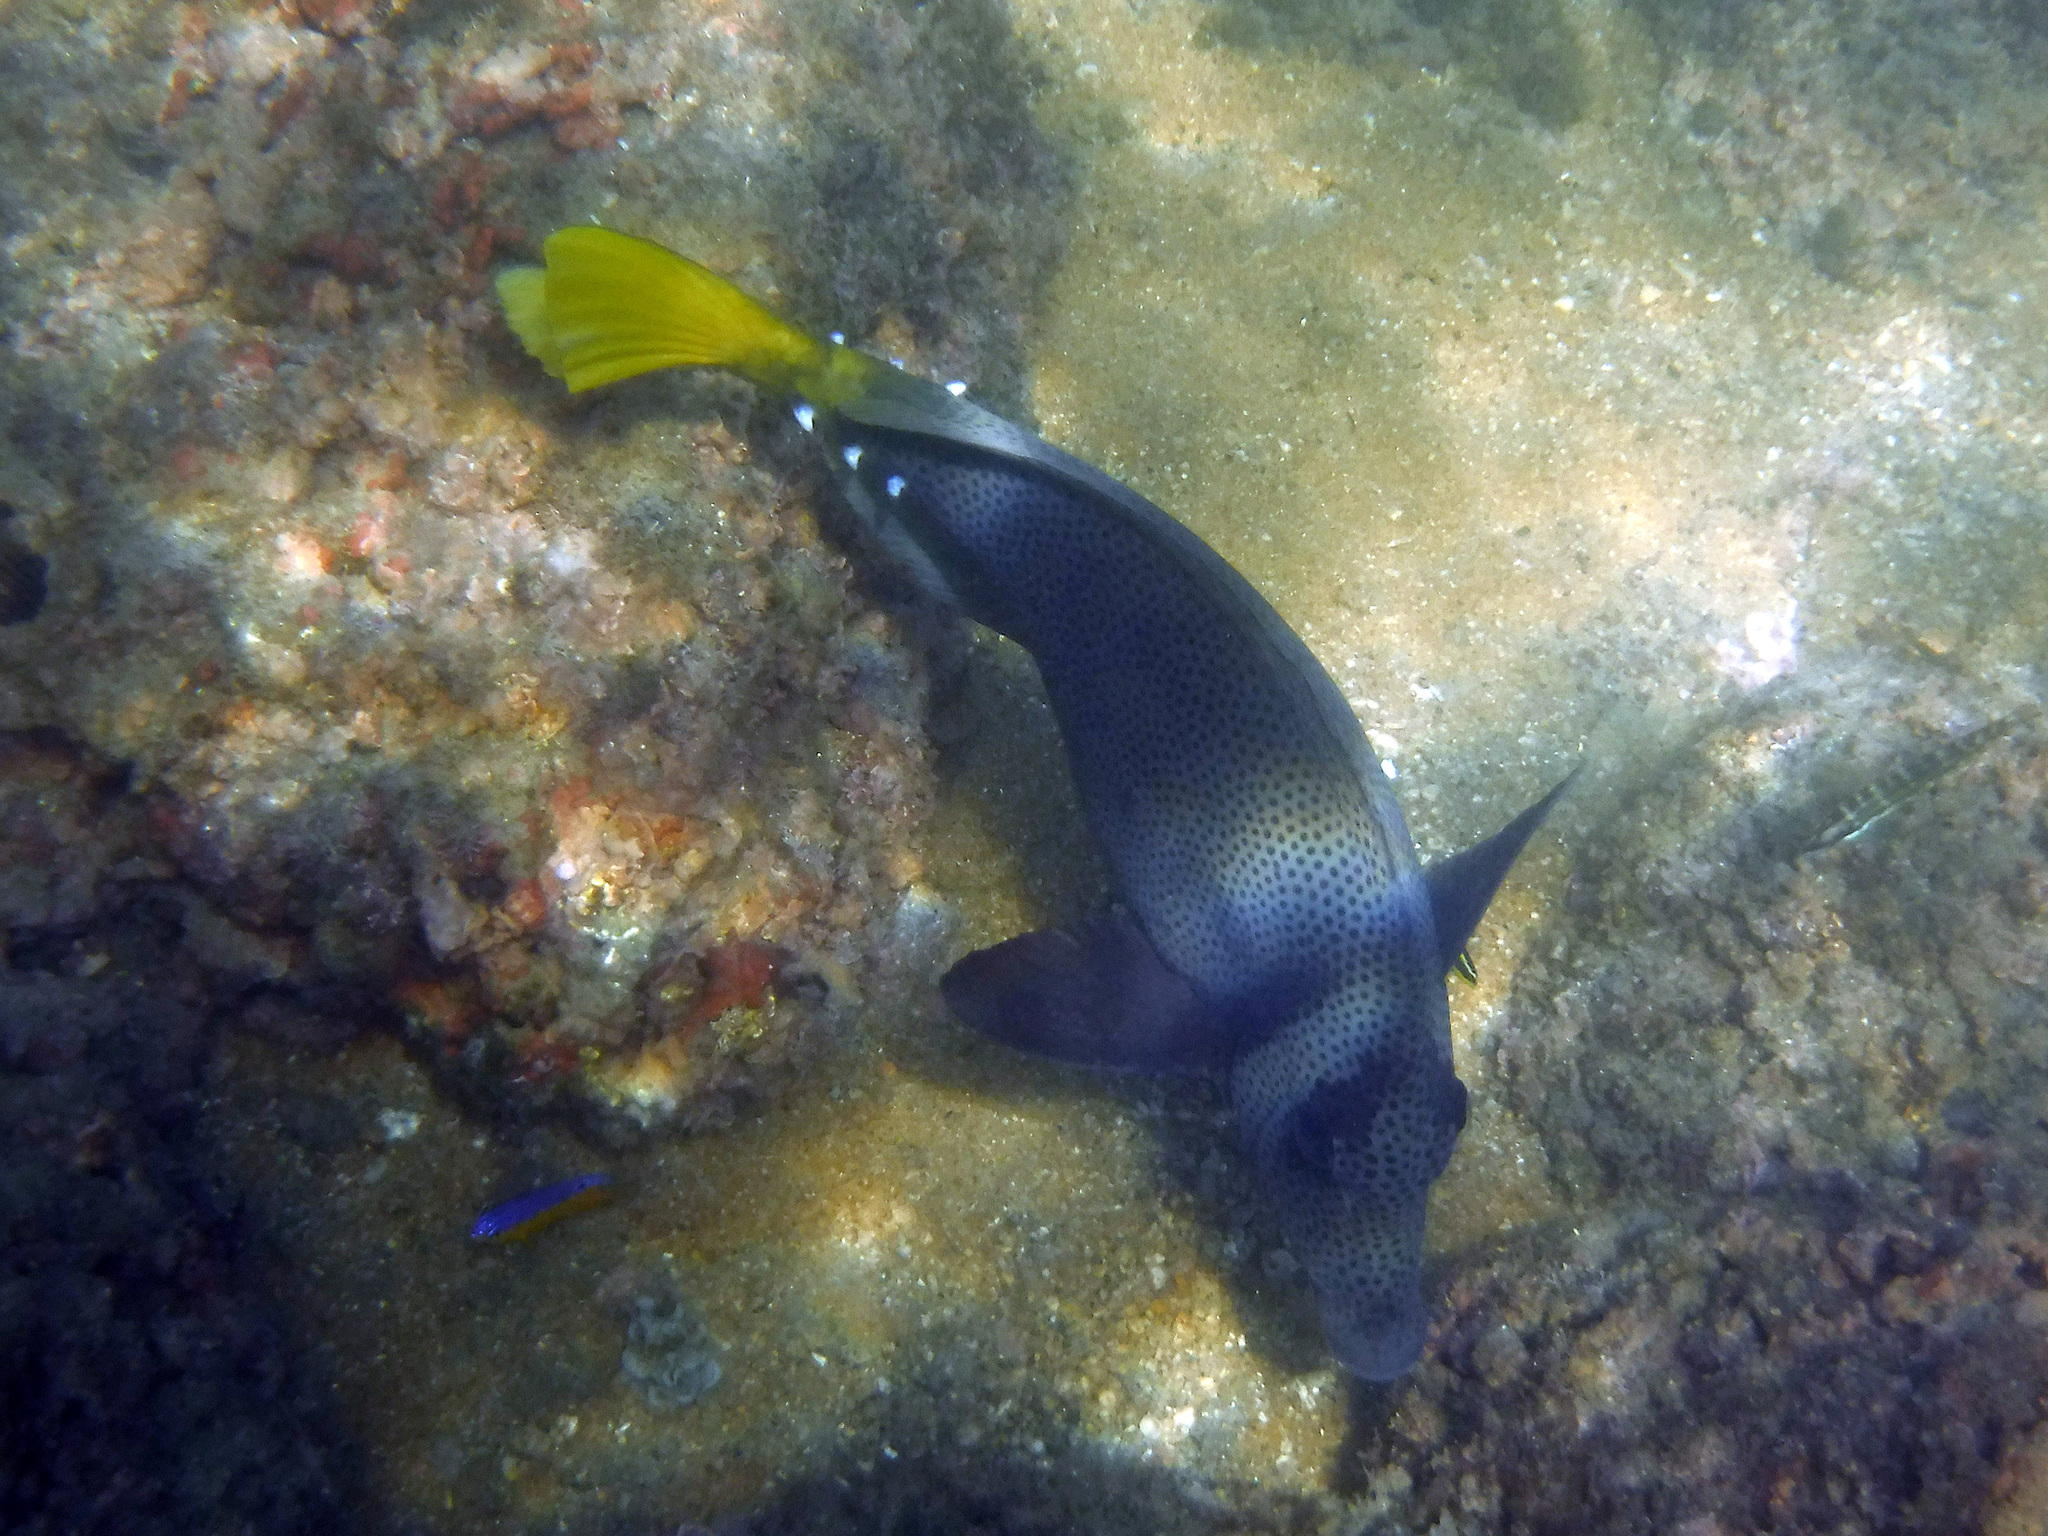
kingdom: Animalia
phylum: Chordata
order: Perciformes
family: Acanthuridae
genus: Prionurus
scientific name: Prionurus laticlavius
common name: Razor surgeonfish
